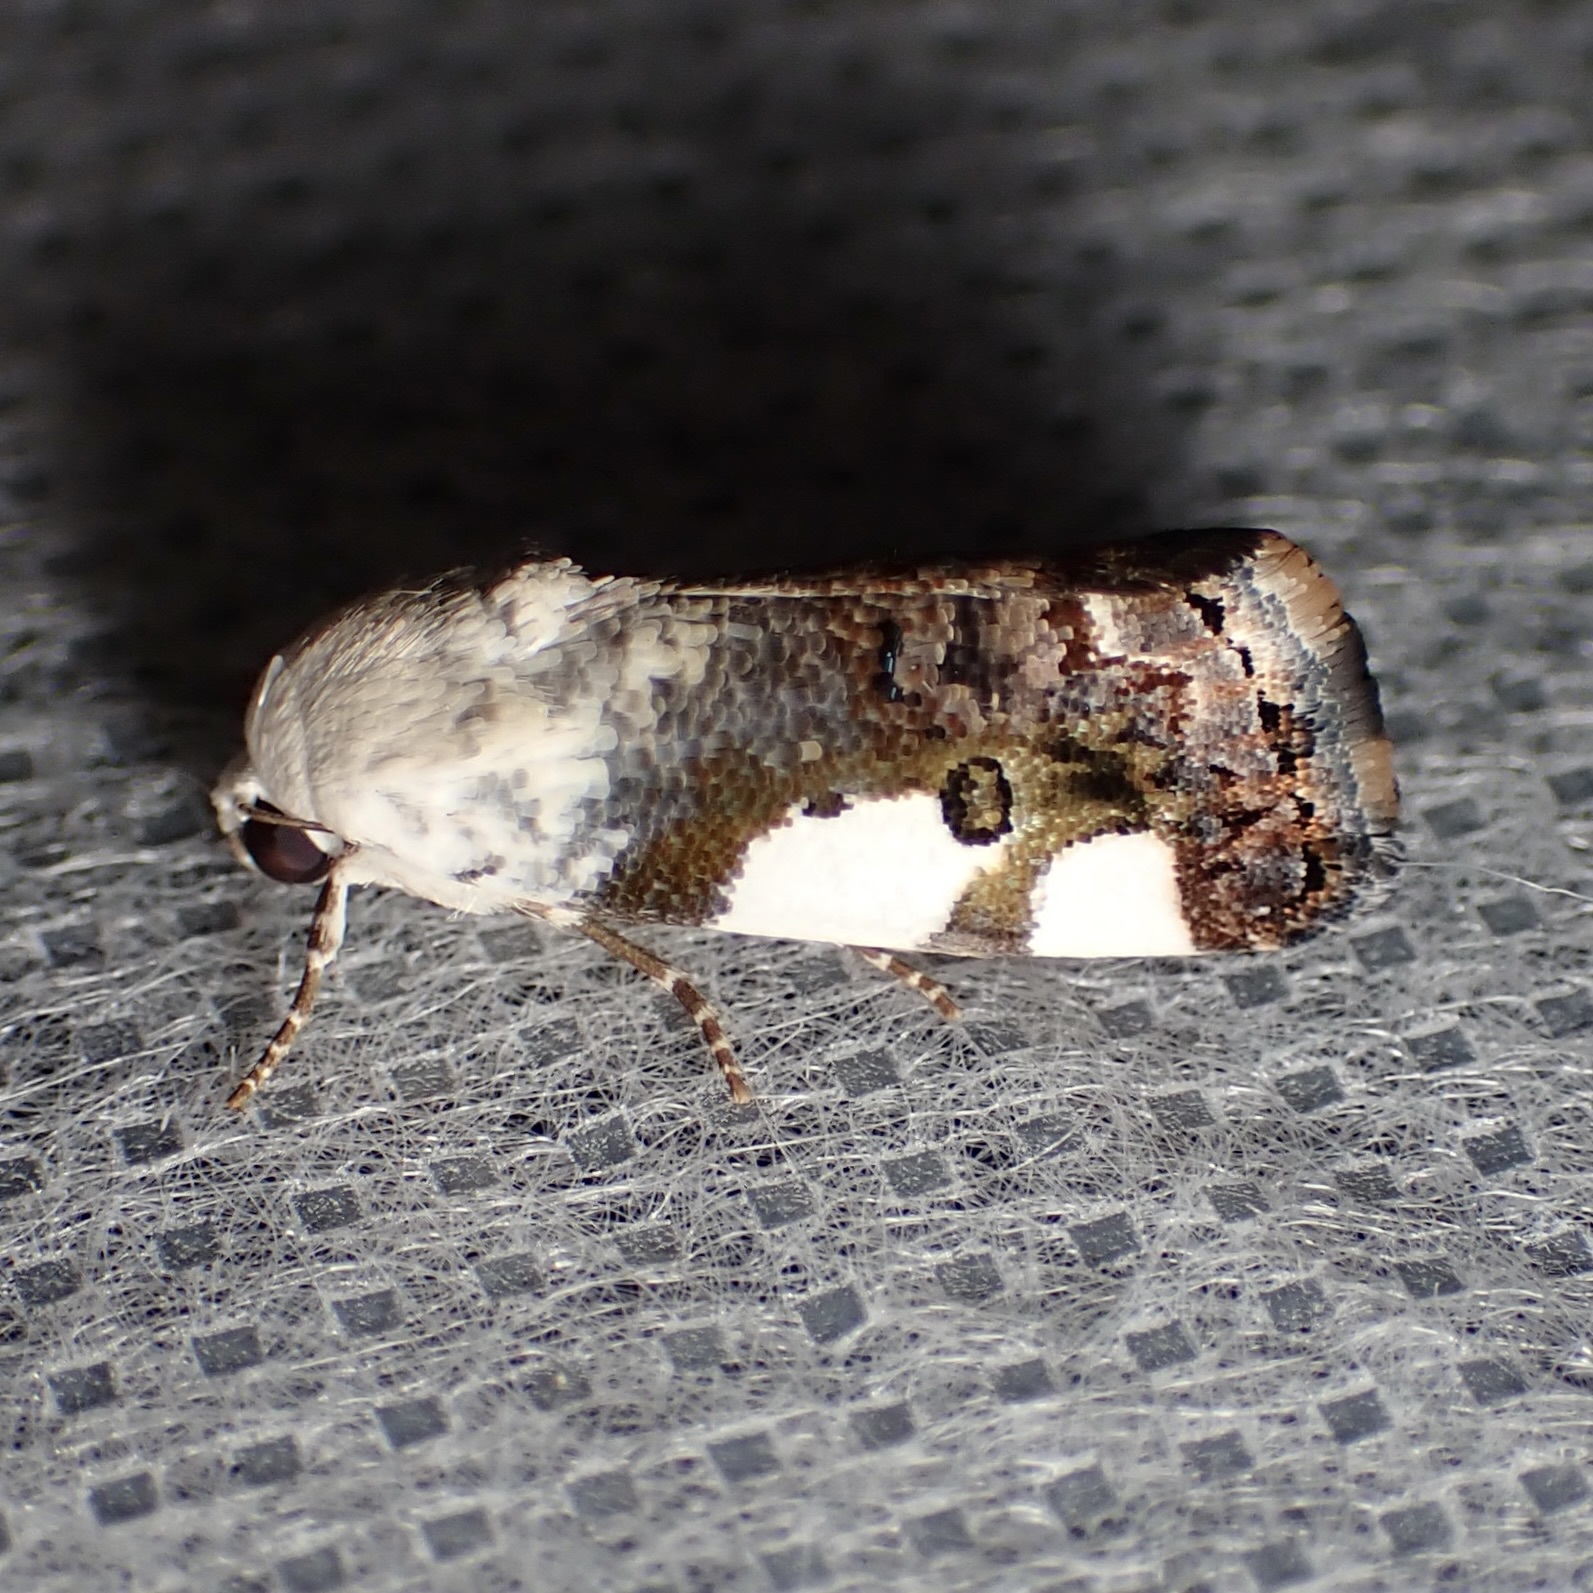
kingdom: Animalia
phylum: Arthropoda
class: Insecta
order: Lepidoptera
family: Noctuidae
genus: Acontia
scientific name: Acontia quadriplaga
